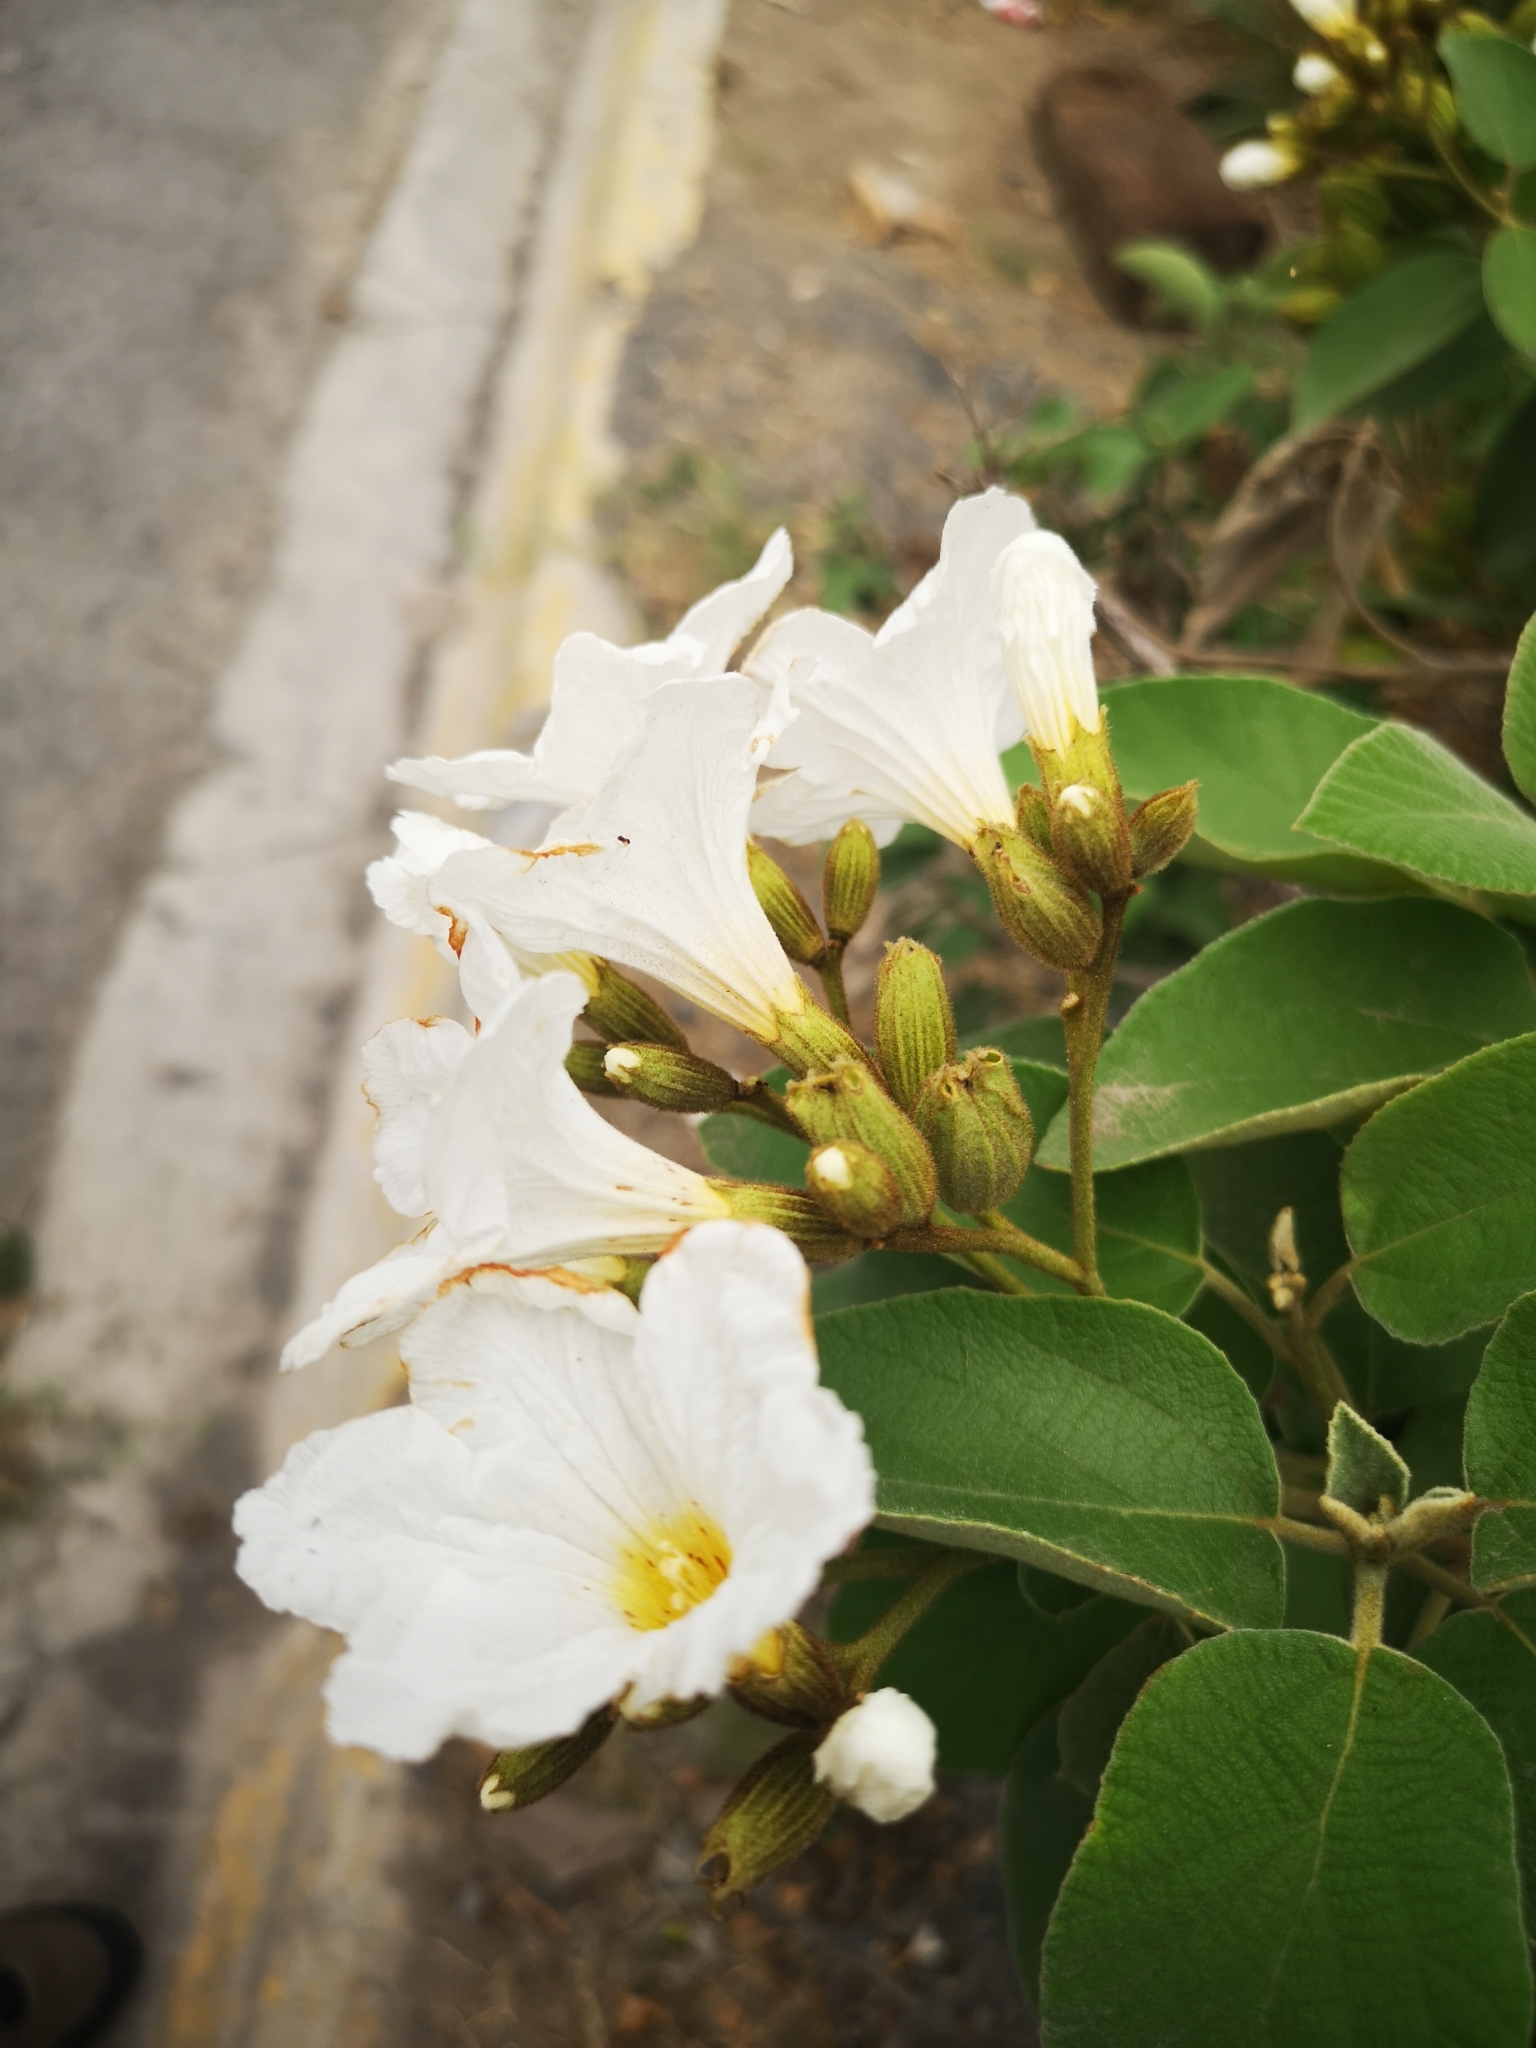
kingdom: Plantae
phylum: Tracheophyta
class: Magnoliopsida
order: Boraginales
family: Cordiaceae
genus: Cordia
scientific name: Cordia boissieri
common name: Mexican-olive
